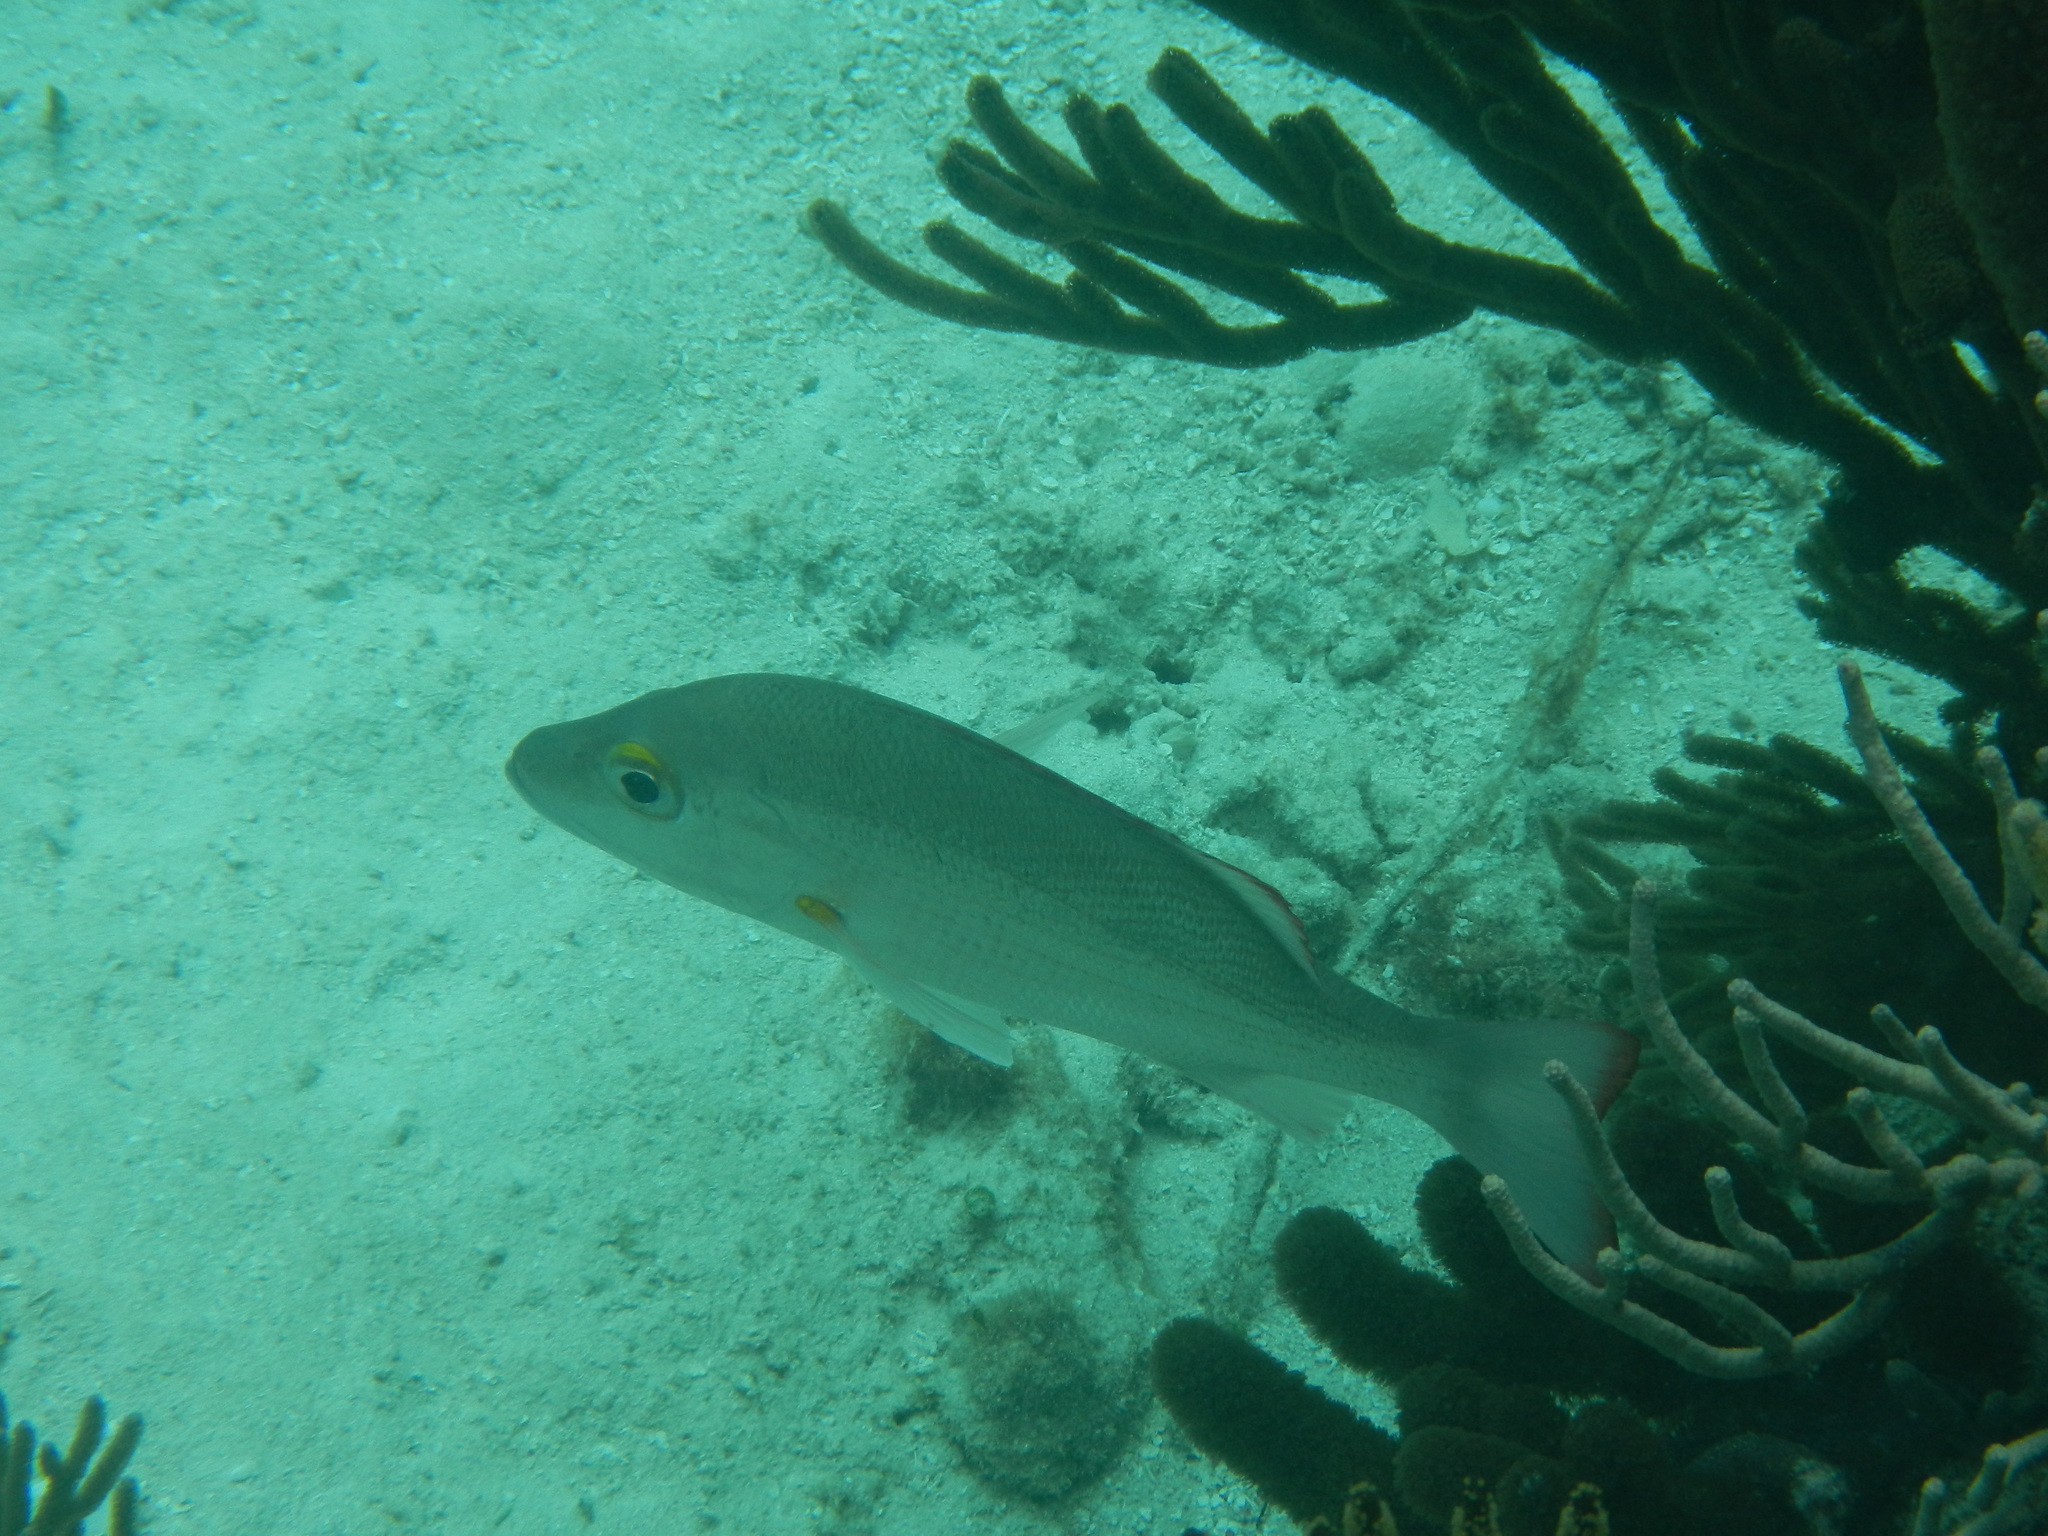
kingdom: Animalia
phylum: Chordata
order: Perciformes
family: Lutjanidae
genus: Lutjanus
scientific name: Lutjanus mahogoni
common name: Spot snapper
